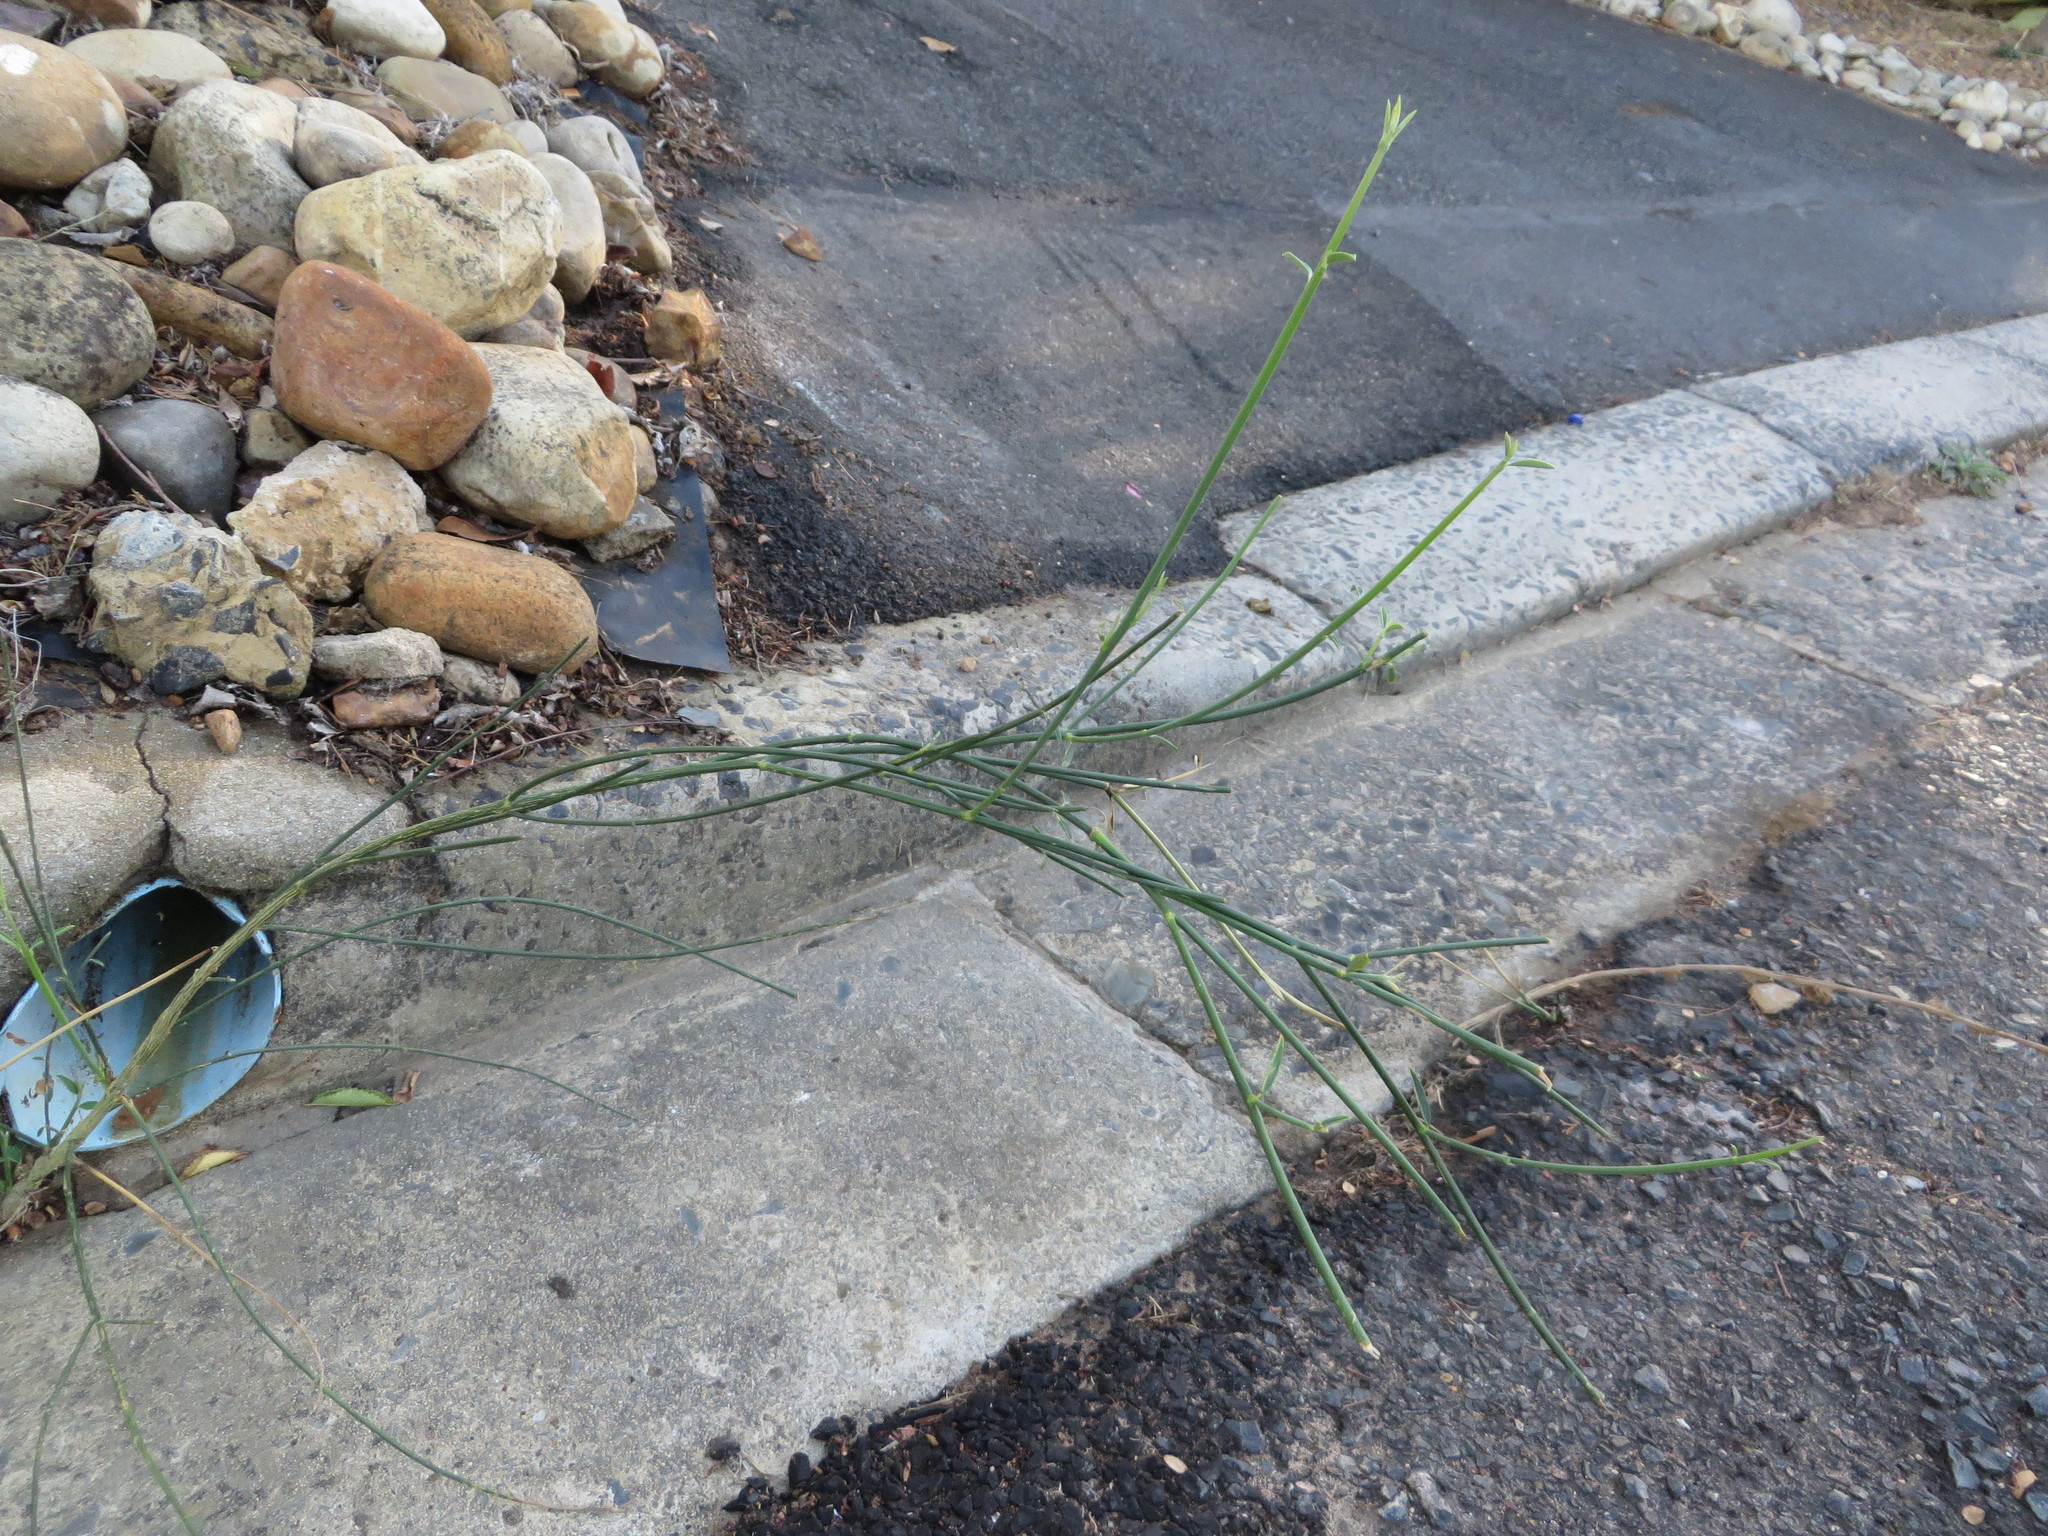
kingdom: Plantae
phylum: Tracheophyta
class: Magnoliopsida
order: Fabales
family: Fabaceae
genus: Spartium
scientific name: Spartium junceum
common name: Spanish broom
